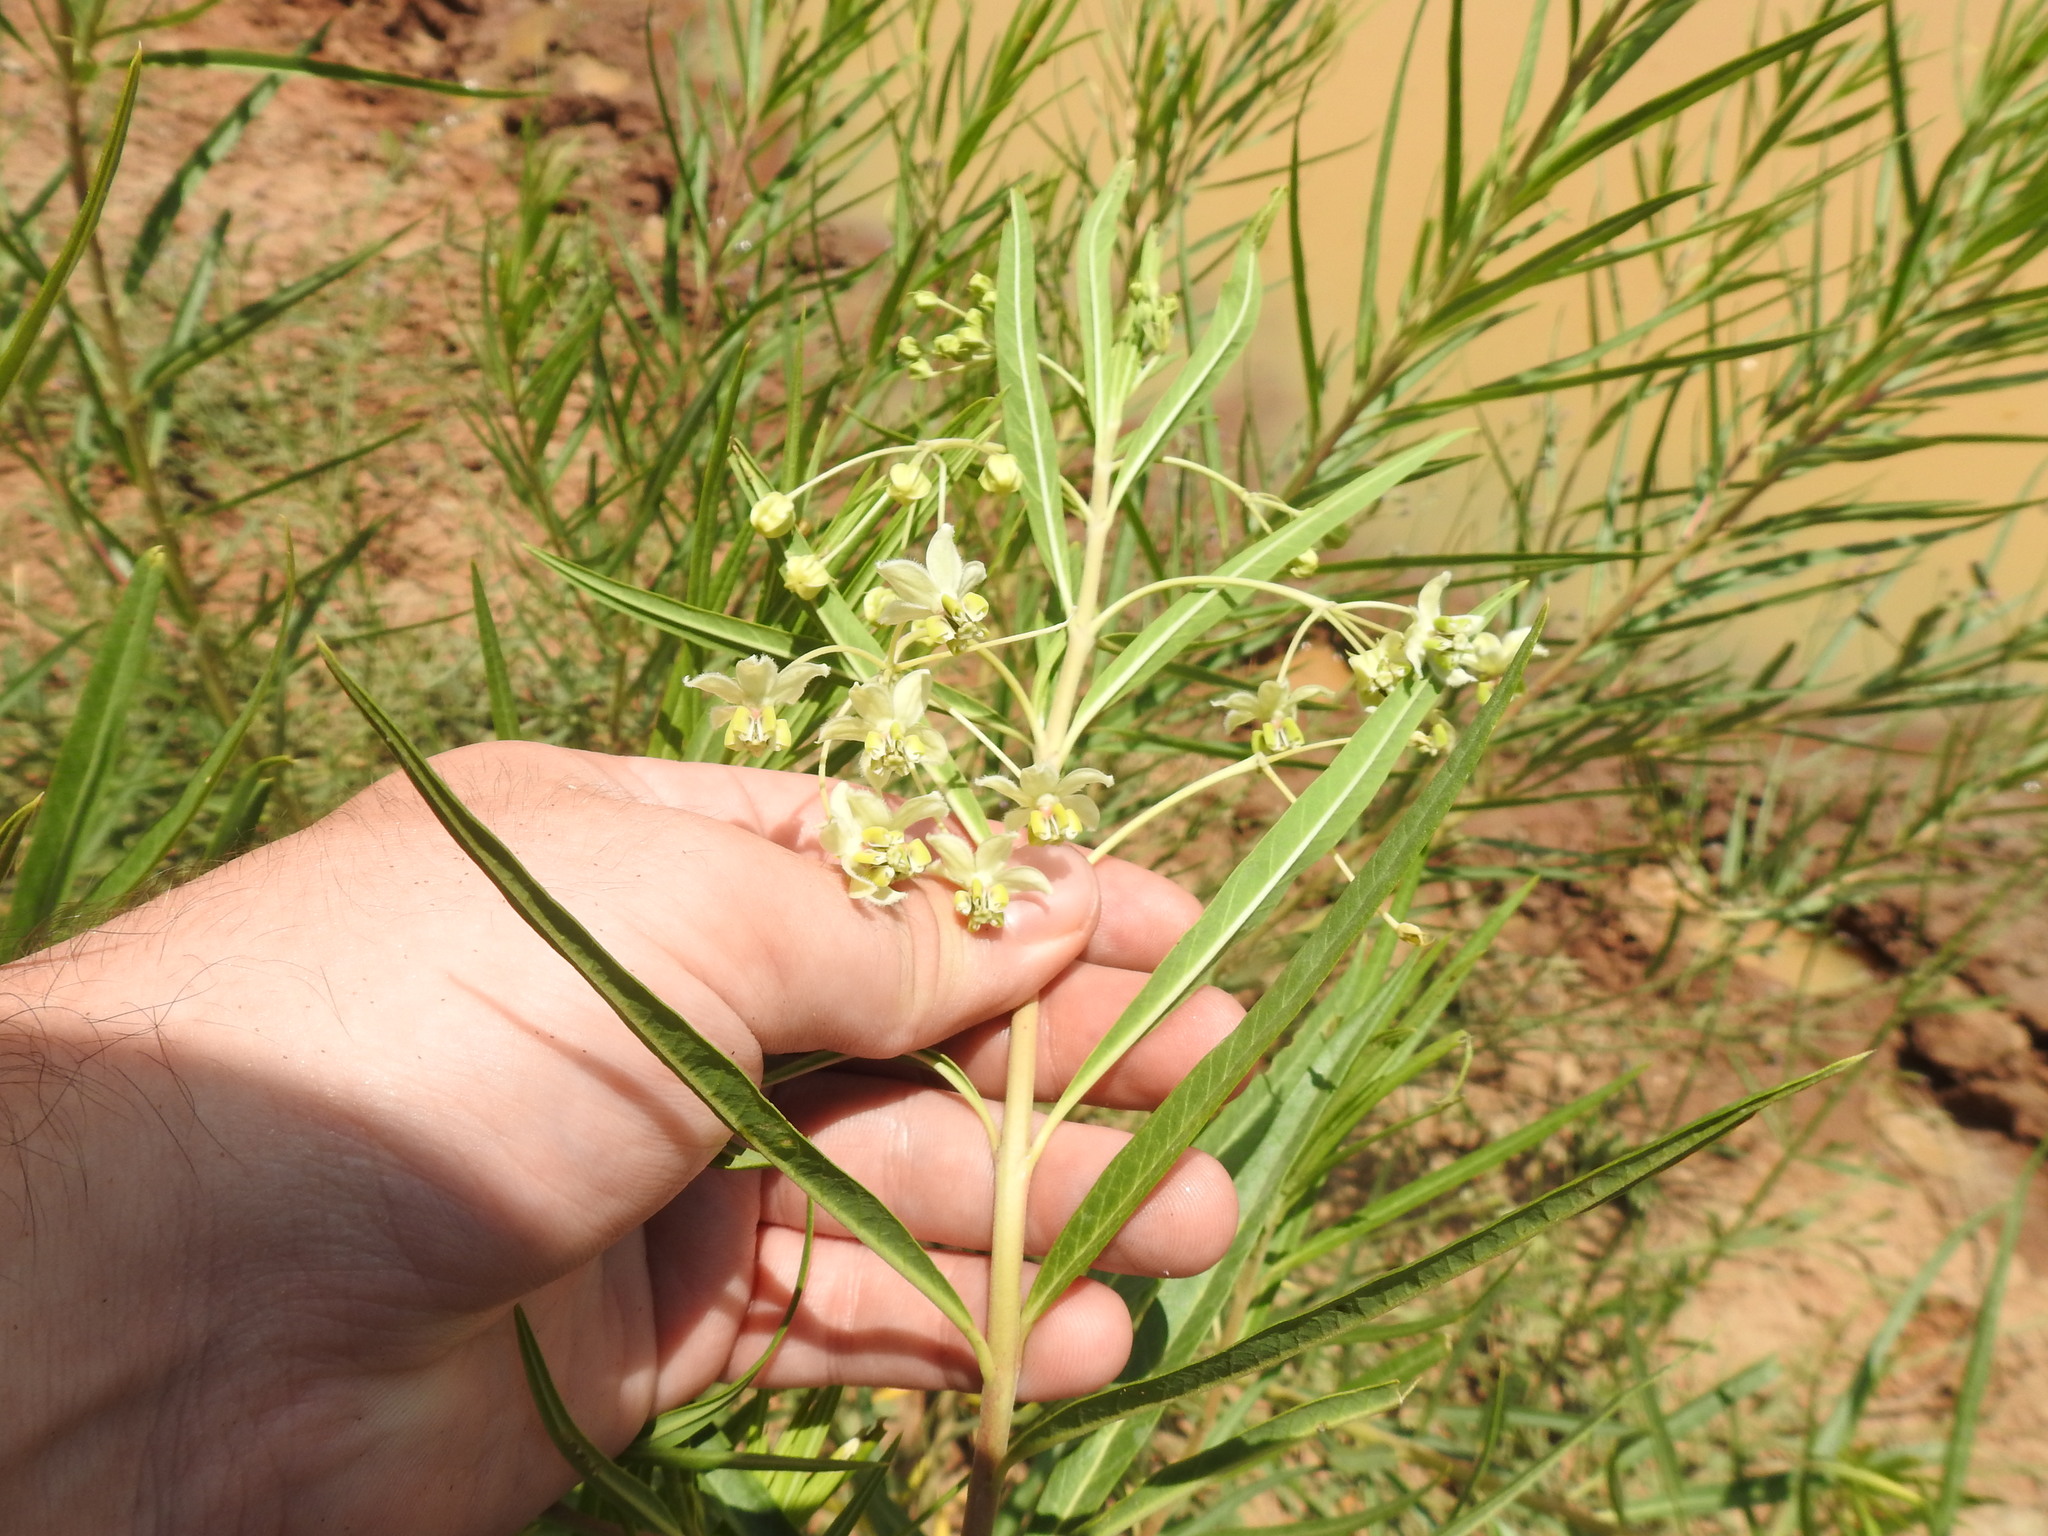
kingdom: Plantae
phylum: Tracheophyta
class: Magnoliopsida
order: Gentianales
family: Apocynaceae
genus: Gomphocarpus
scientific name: Gomphocarpus fruticosus
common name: Milkweed
